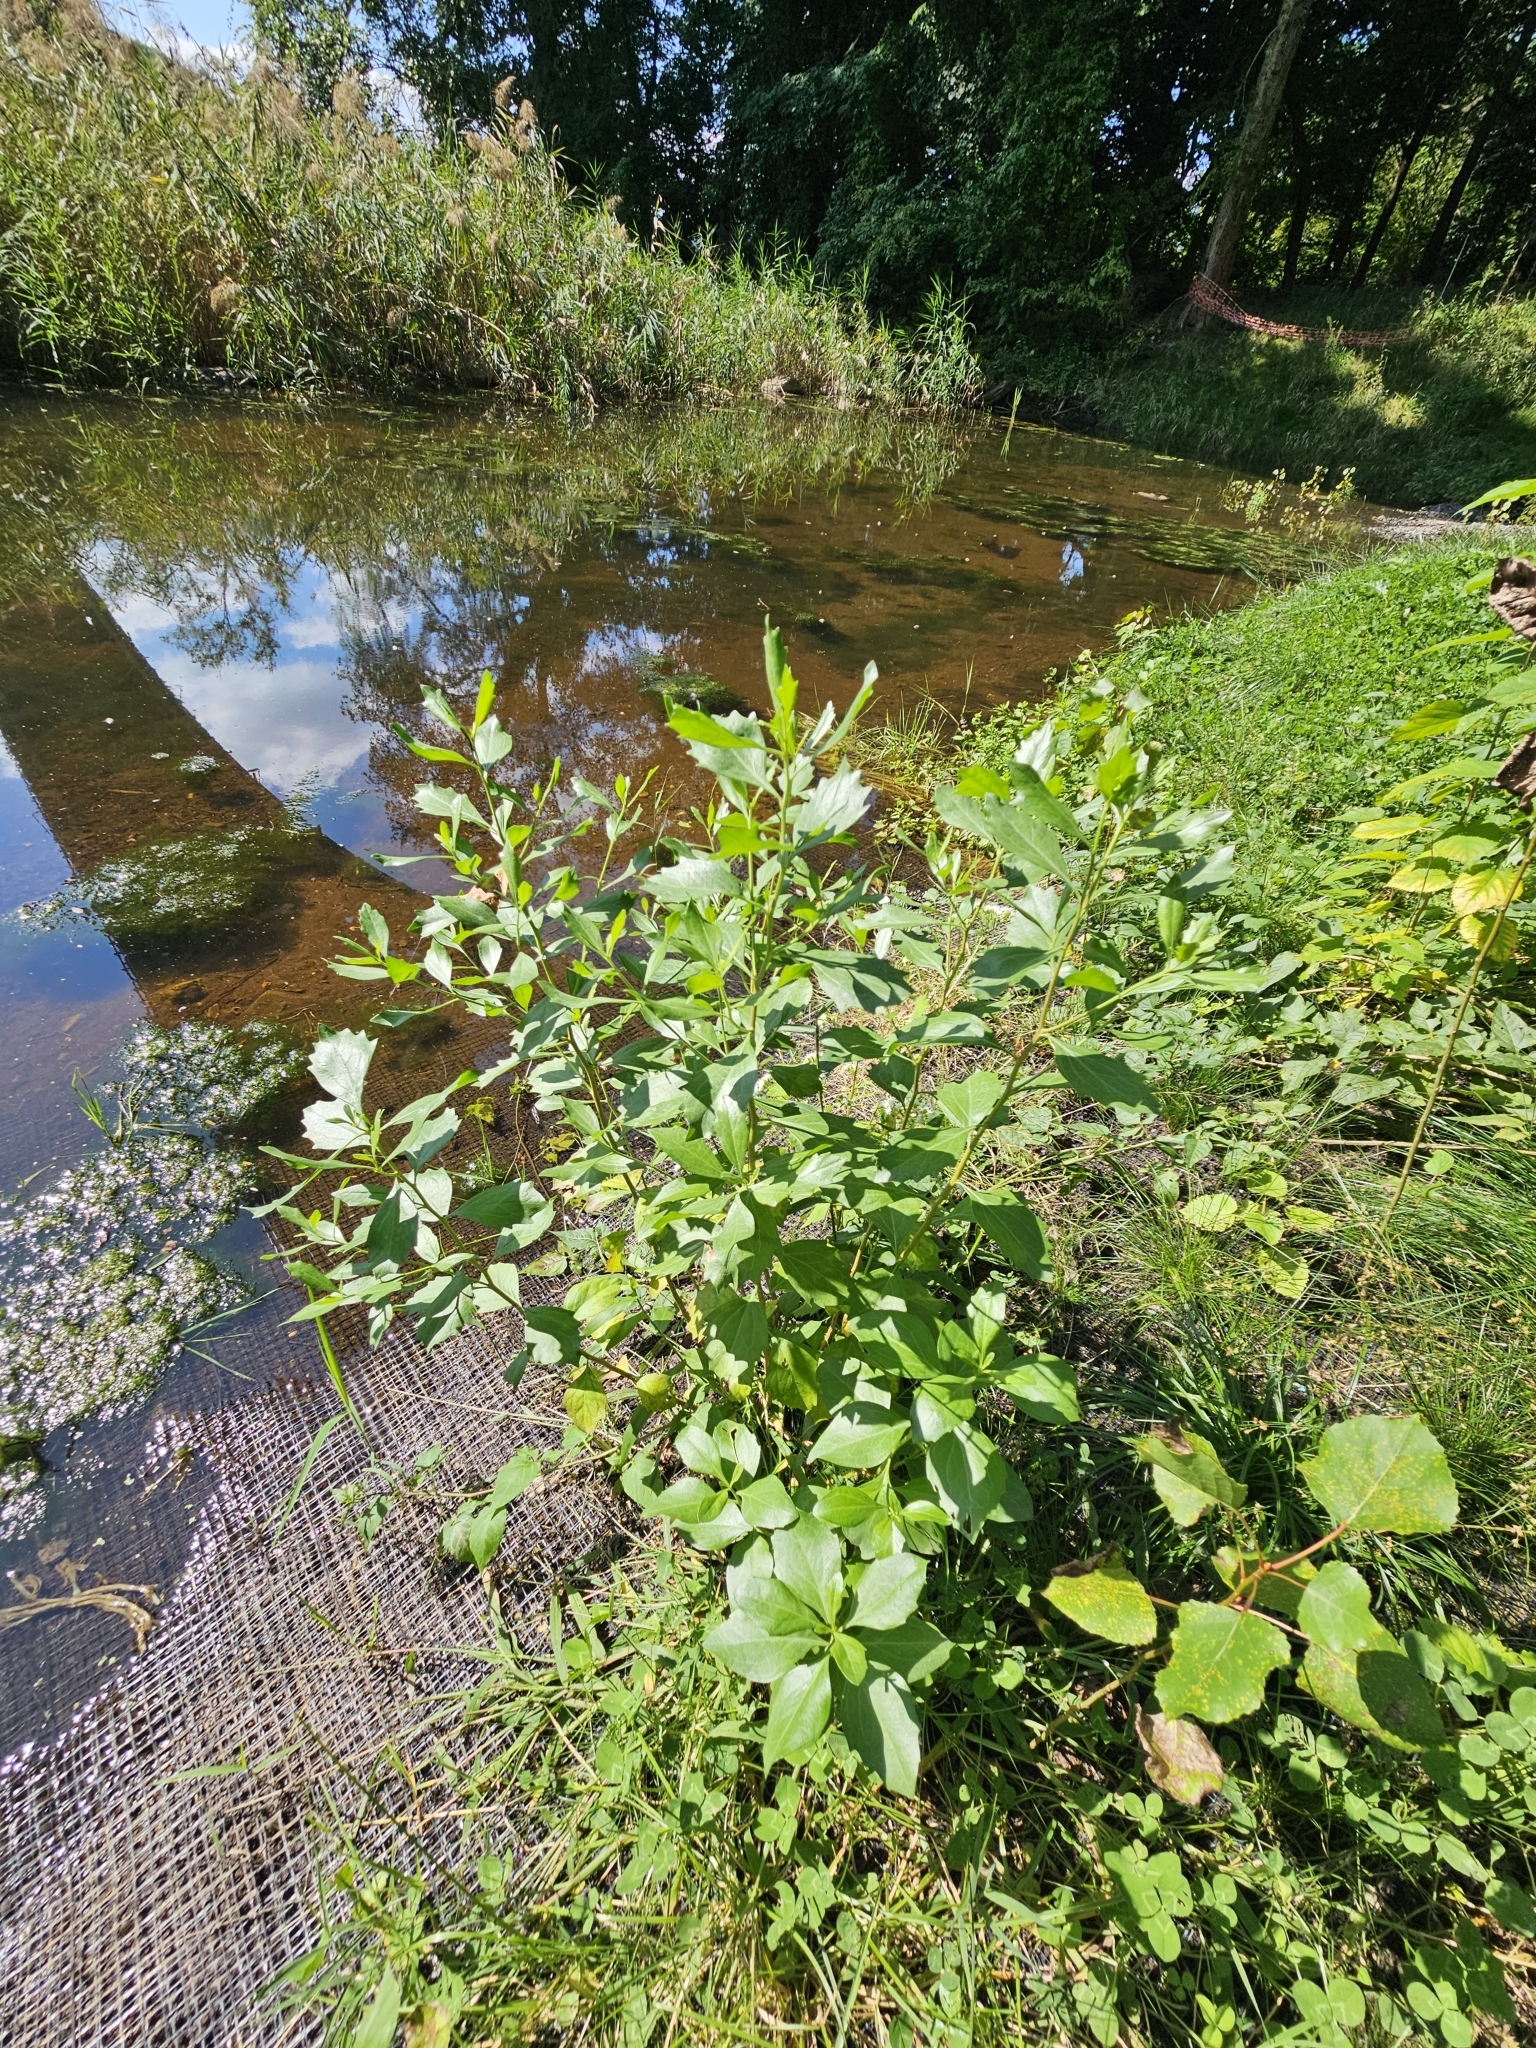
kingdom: Plantae
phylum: Tracheophyta
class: Magnoliopsida
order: Asterales
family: Asteraceae
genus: Baccharis
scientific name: Baccharis halimifolia
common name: Eastern baccharis
